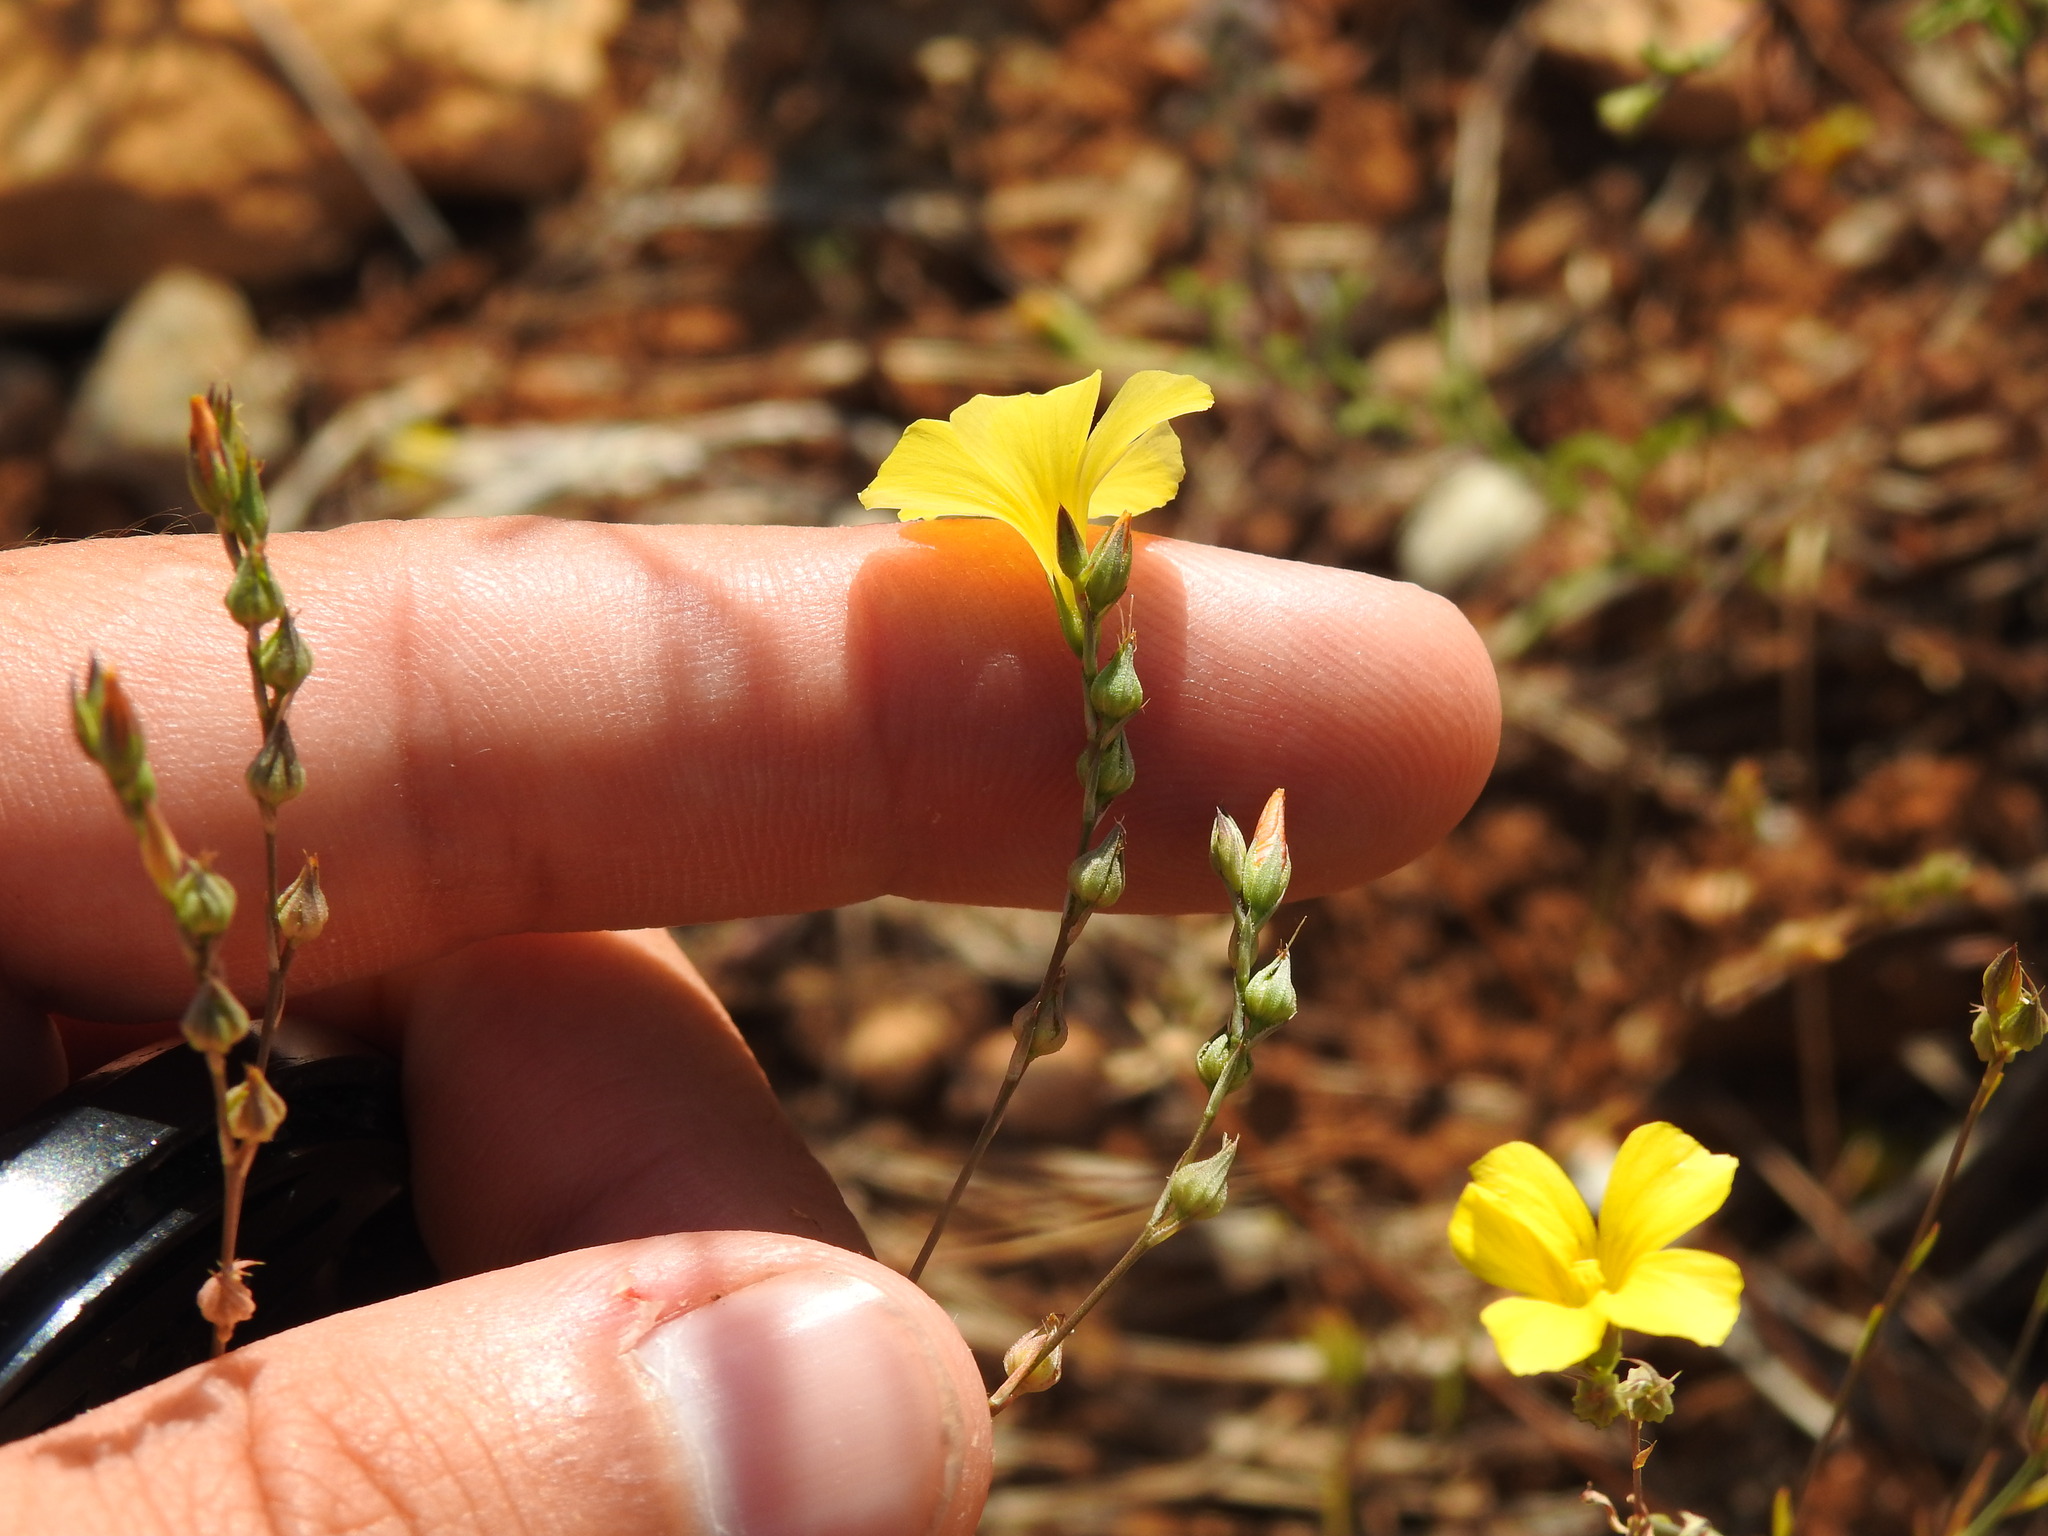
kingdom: Plantae
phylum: Tracheophyta
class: Magnoliopsida
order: Malpighiales
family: Linaceae
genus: Linum
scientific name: Linum tenue
